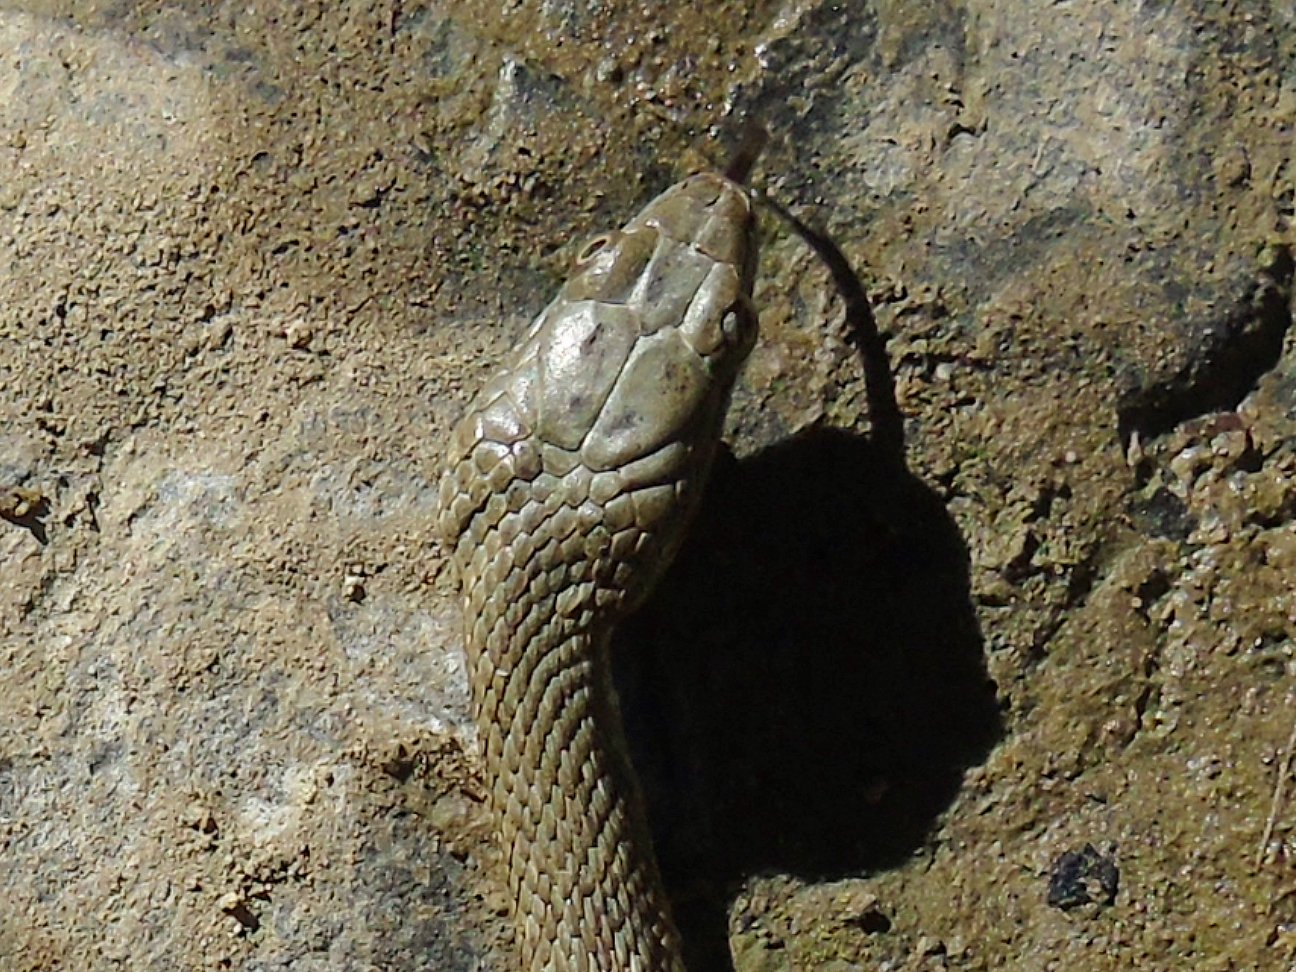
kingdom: Animalia
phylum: Chordata
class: Squamata
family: Colubridae
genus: Natrix
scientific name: Natrix tessellata
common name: Dice snake
